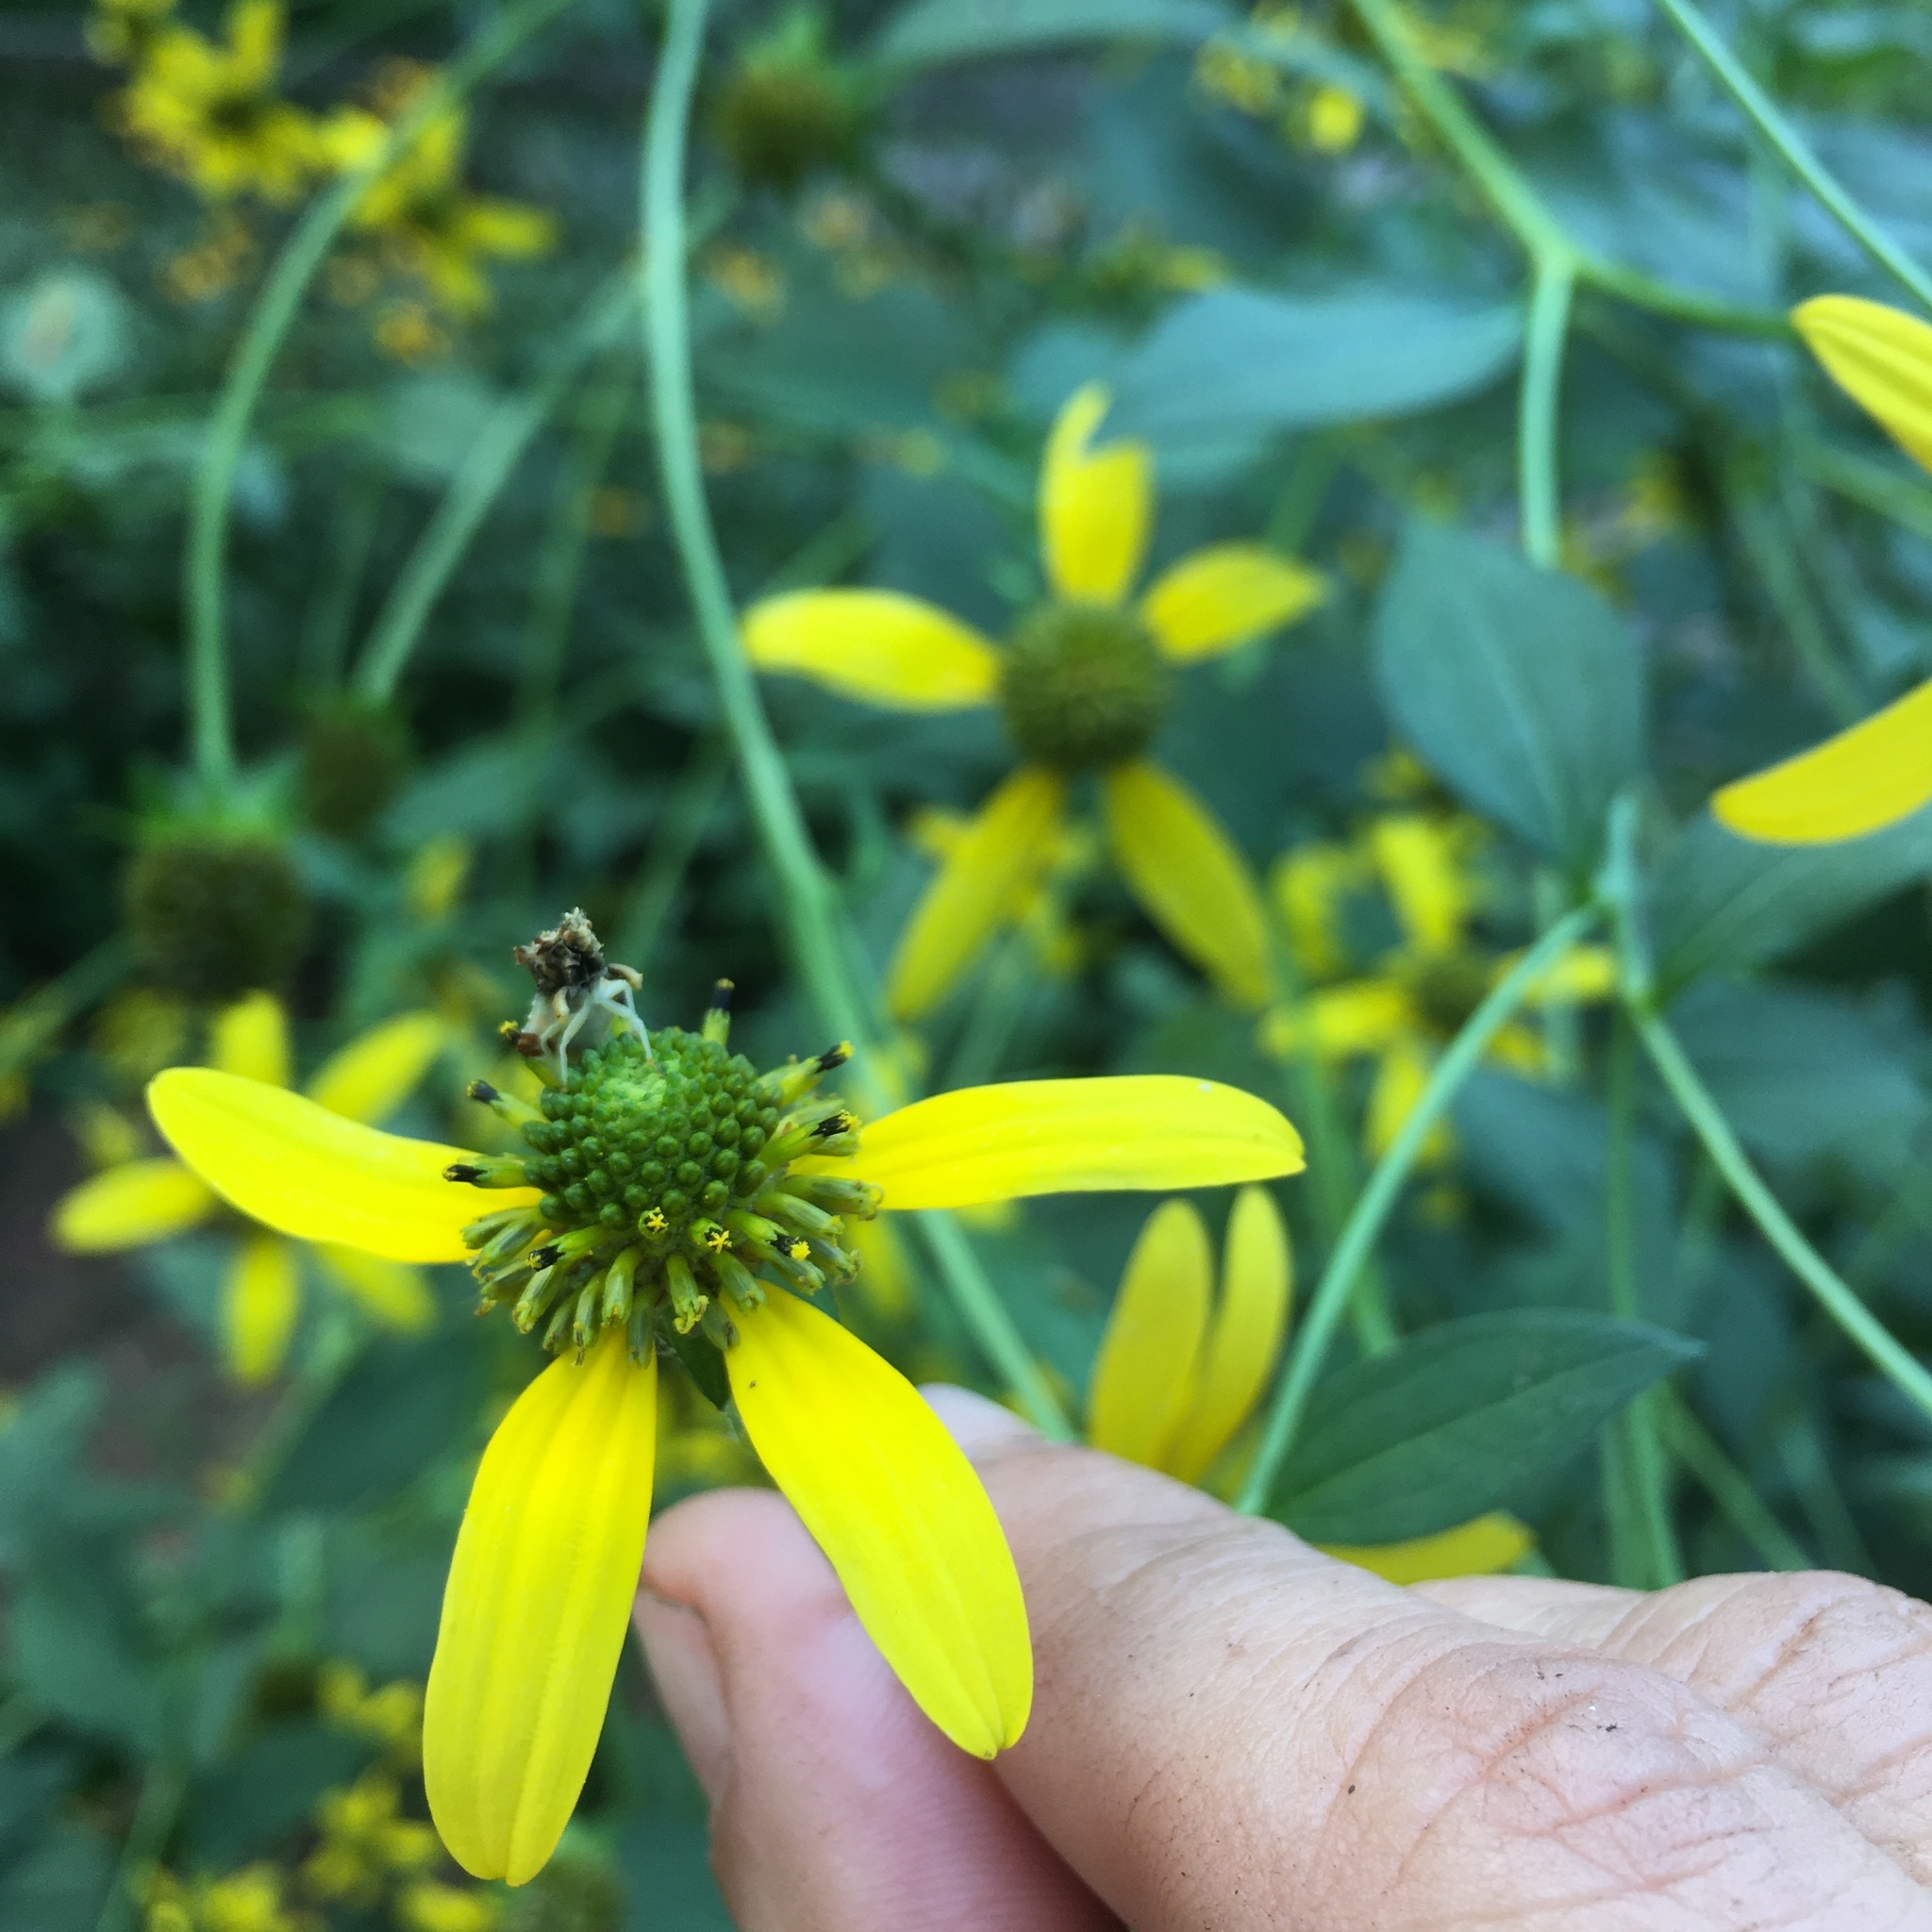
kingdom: Animalia
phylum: Arthropoda
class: Insecta
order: Hemiptera
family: Reduviidae
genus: Phymata
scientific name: Phymata fasciata
